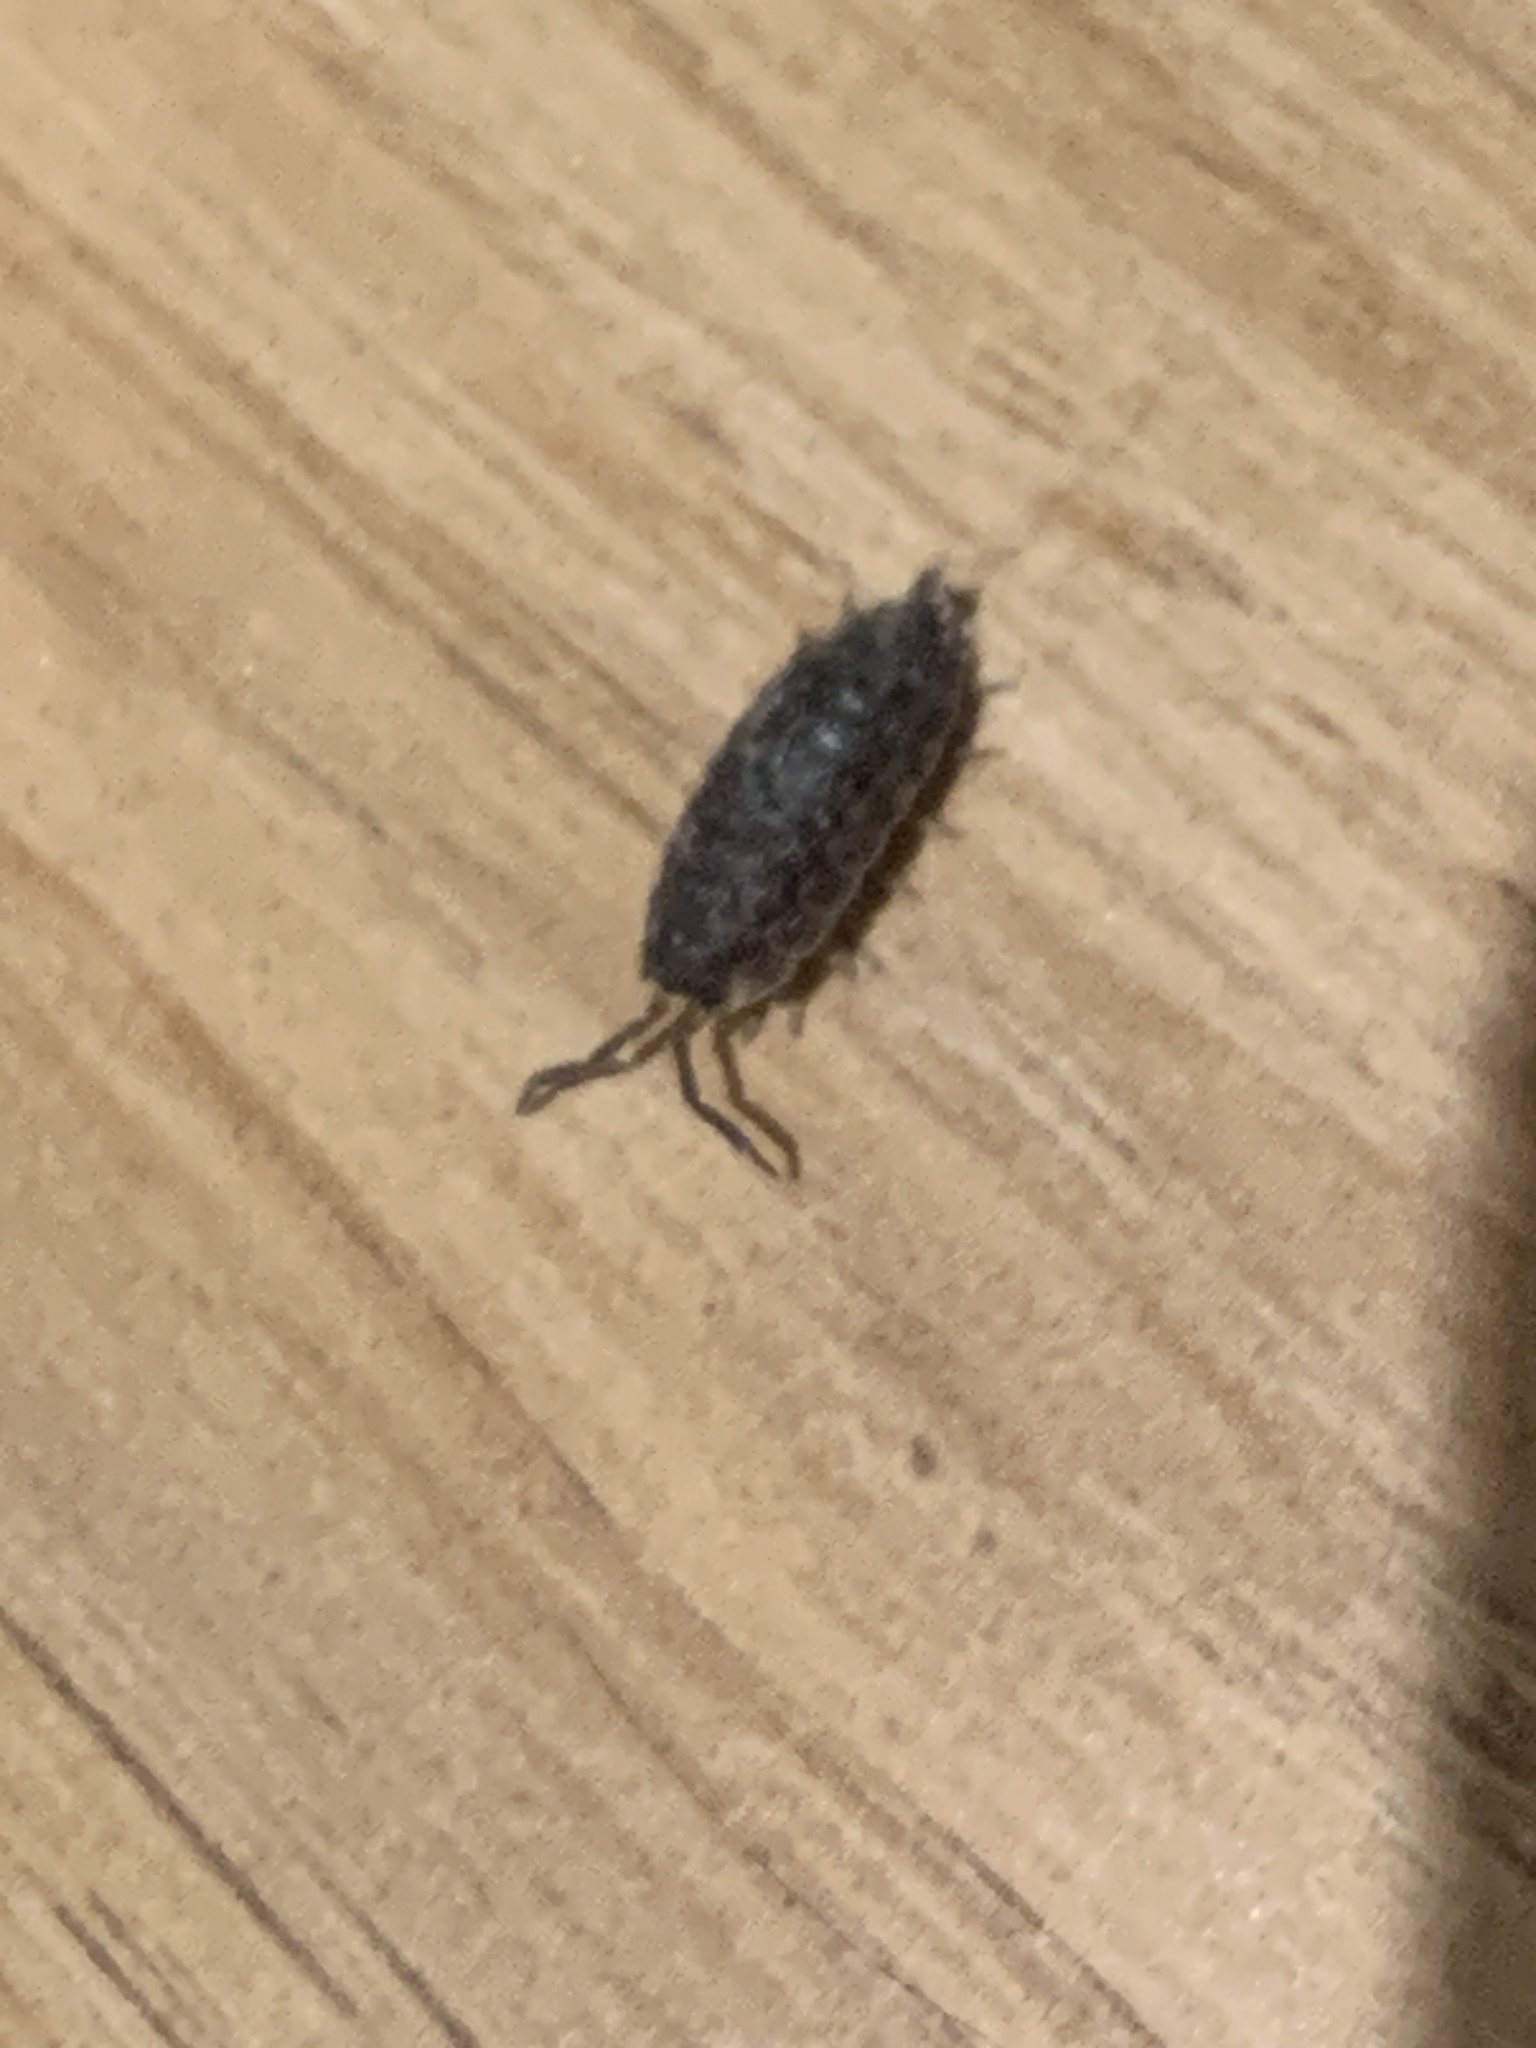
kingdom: Animalia
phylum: Arthropoda
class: Malacostraca
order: Isopoda
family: Porcellionidae
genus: Porcellio
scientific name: Porcellio scaber
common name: Common rough woodlouse
